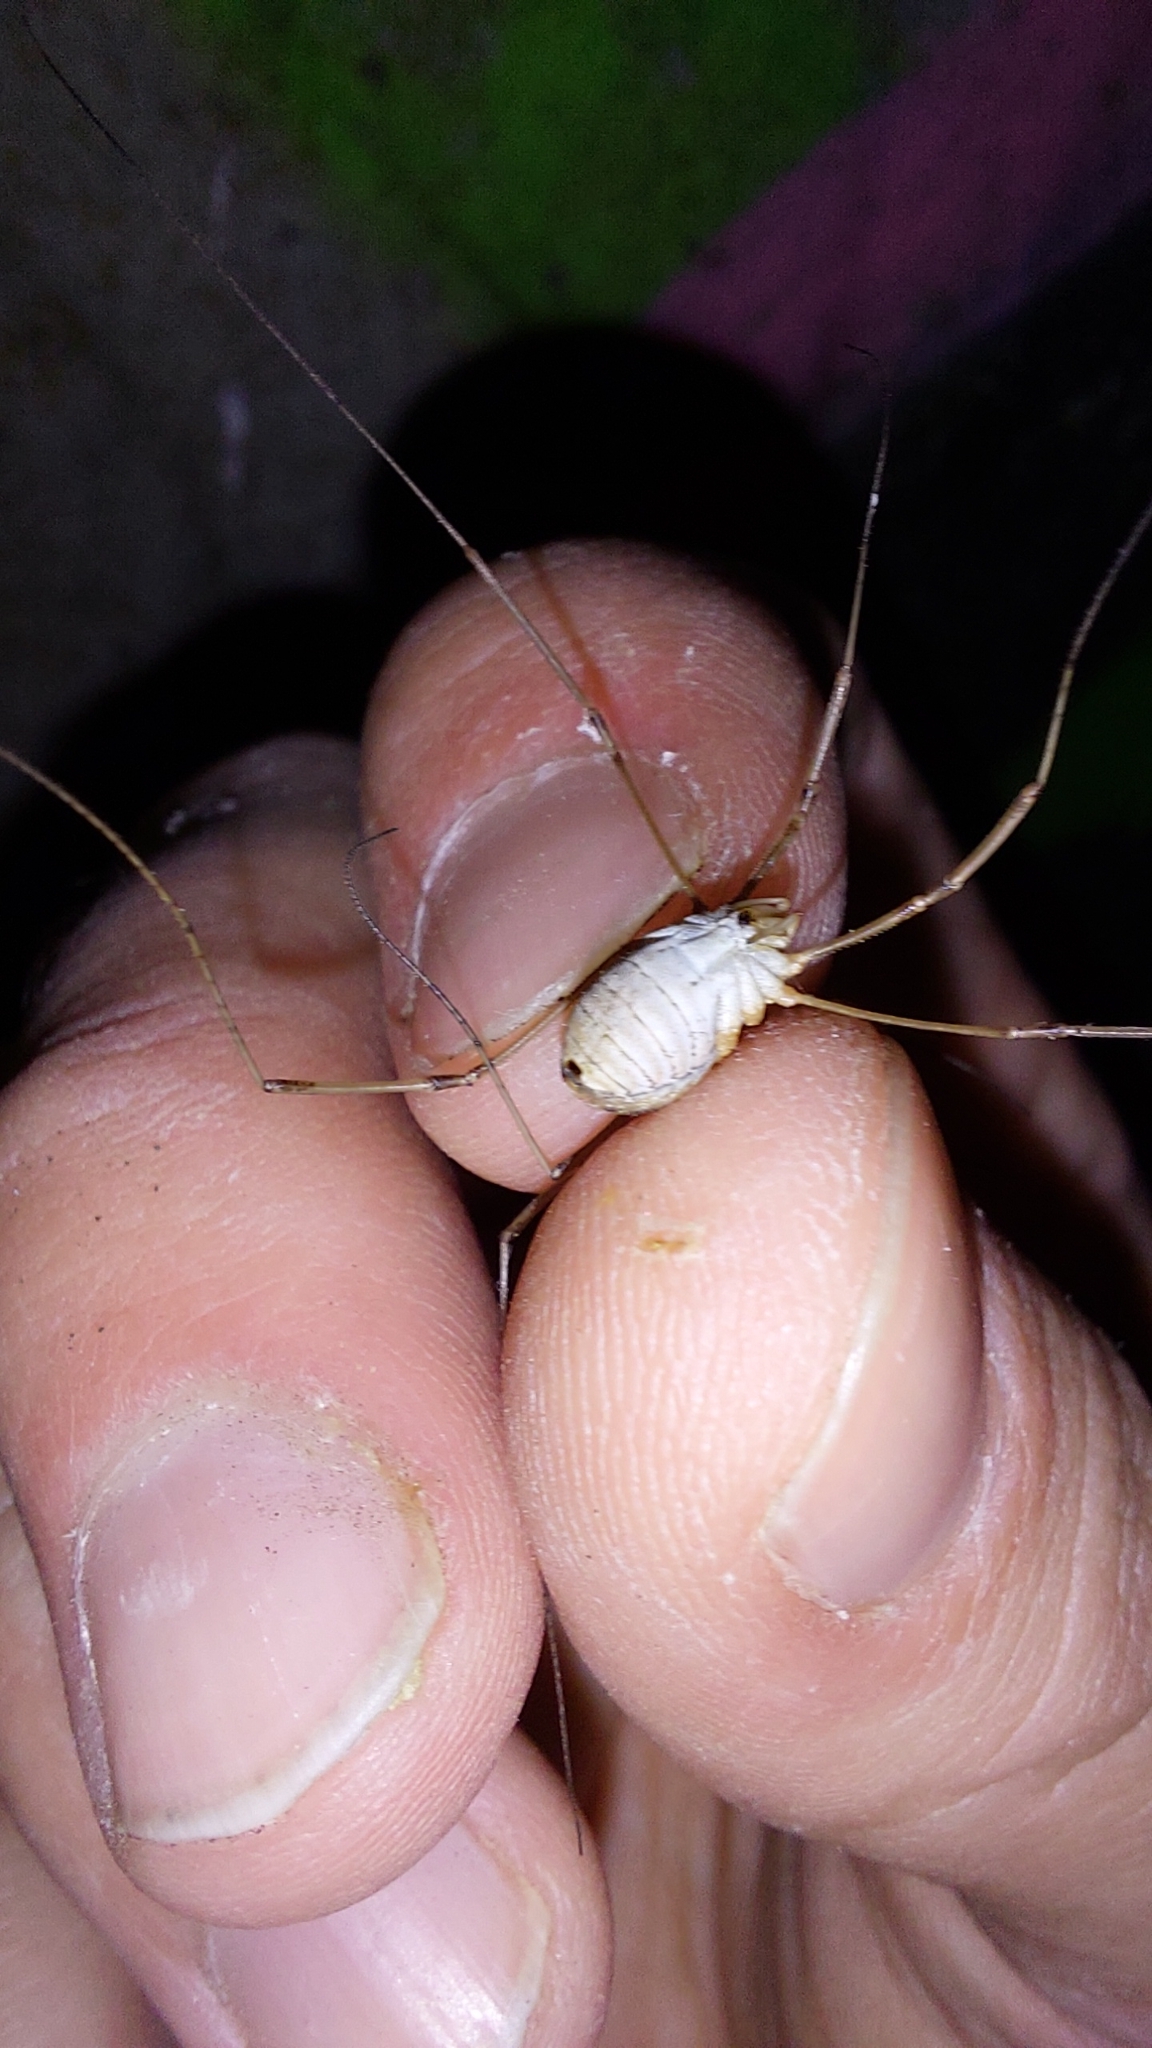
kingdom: Animalia
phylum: Arthropoda
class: Arachnida
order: Opiliones
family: Phalangiidae
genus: Phalangium
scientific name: Phalangium opilio
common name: Daddy longleg
